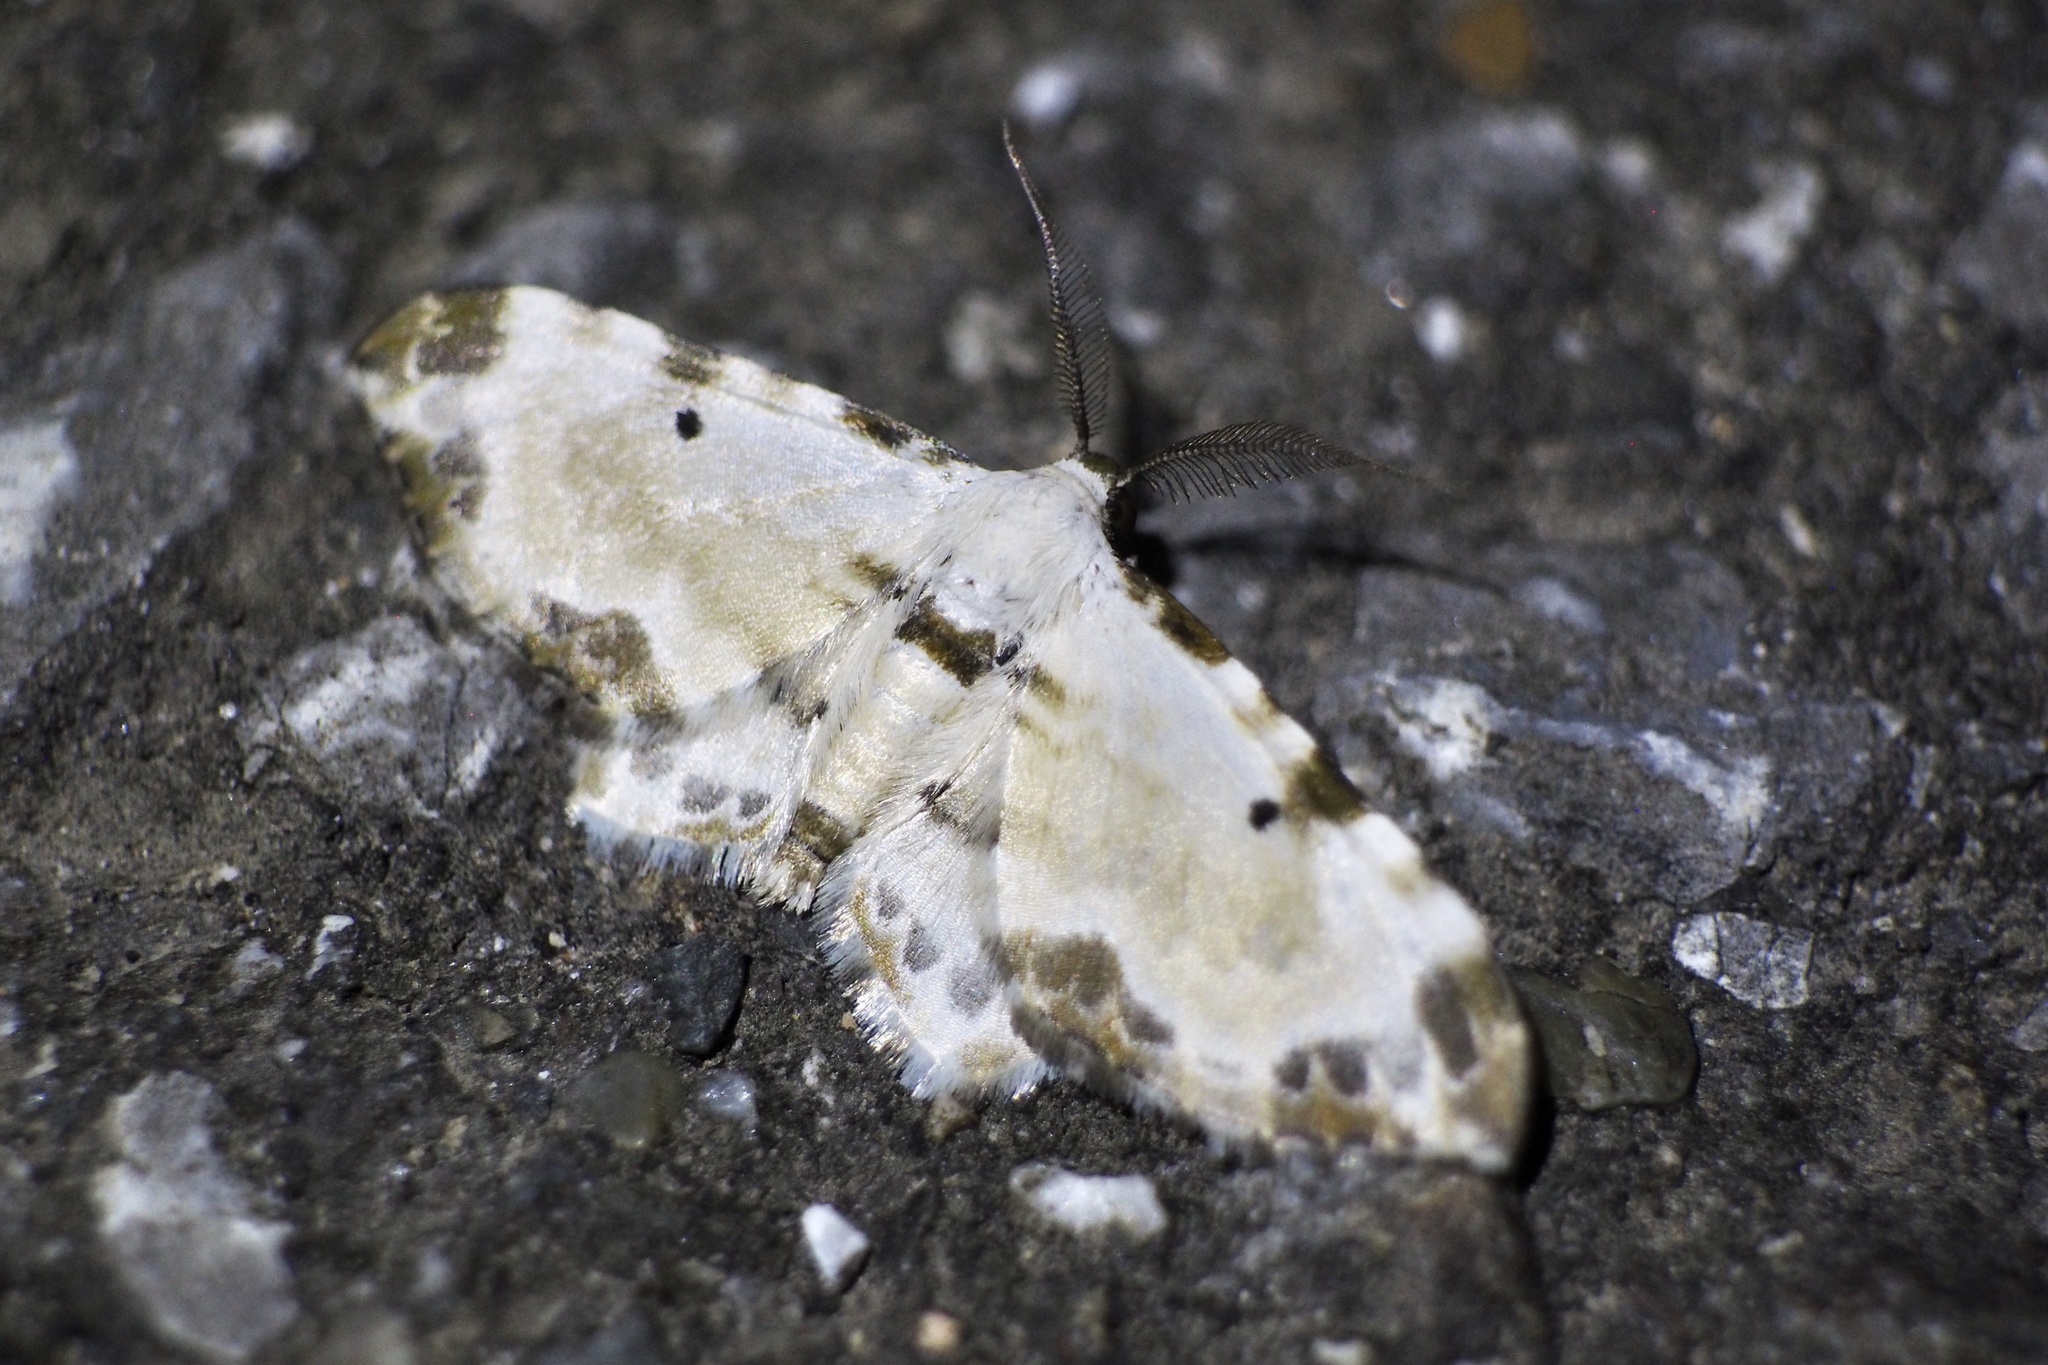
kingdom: Animalia
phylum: Arthropoda
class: Insecta
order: Lepidoptera
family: Geometridae
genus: Tyloptera
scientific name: Tyloptera bella
